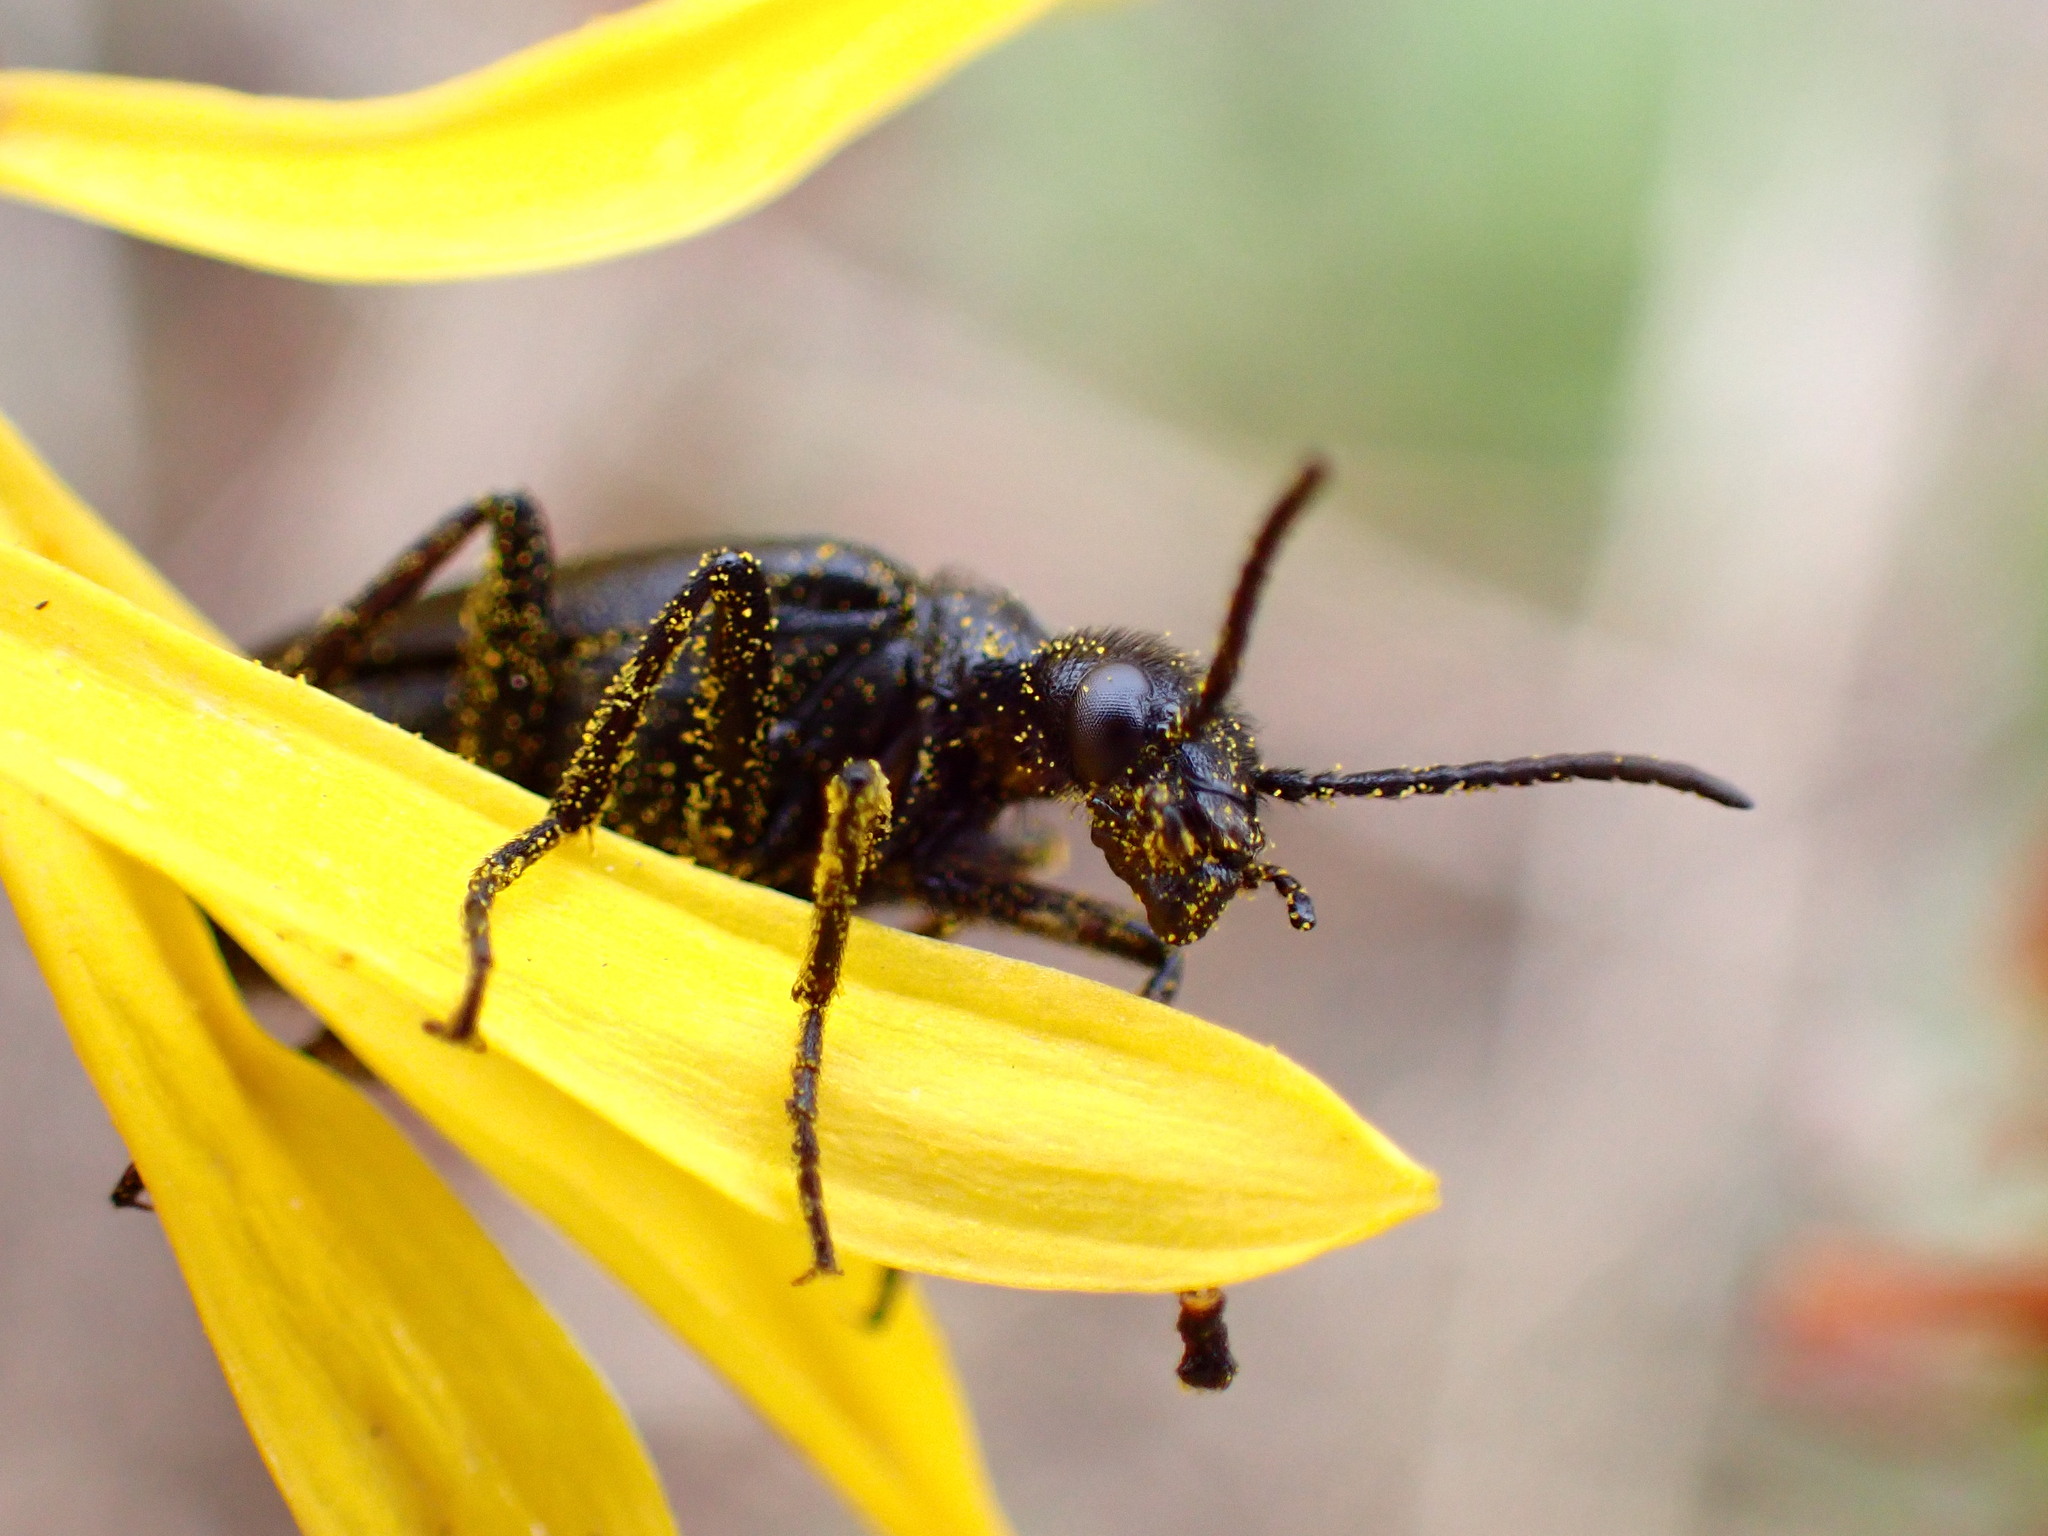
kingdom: Animalia
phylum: Arthropoda
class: Insecta
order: Coleoptera
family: Meloidae
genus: Epicauta
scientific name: Epicauta puncticollis
